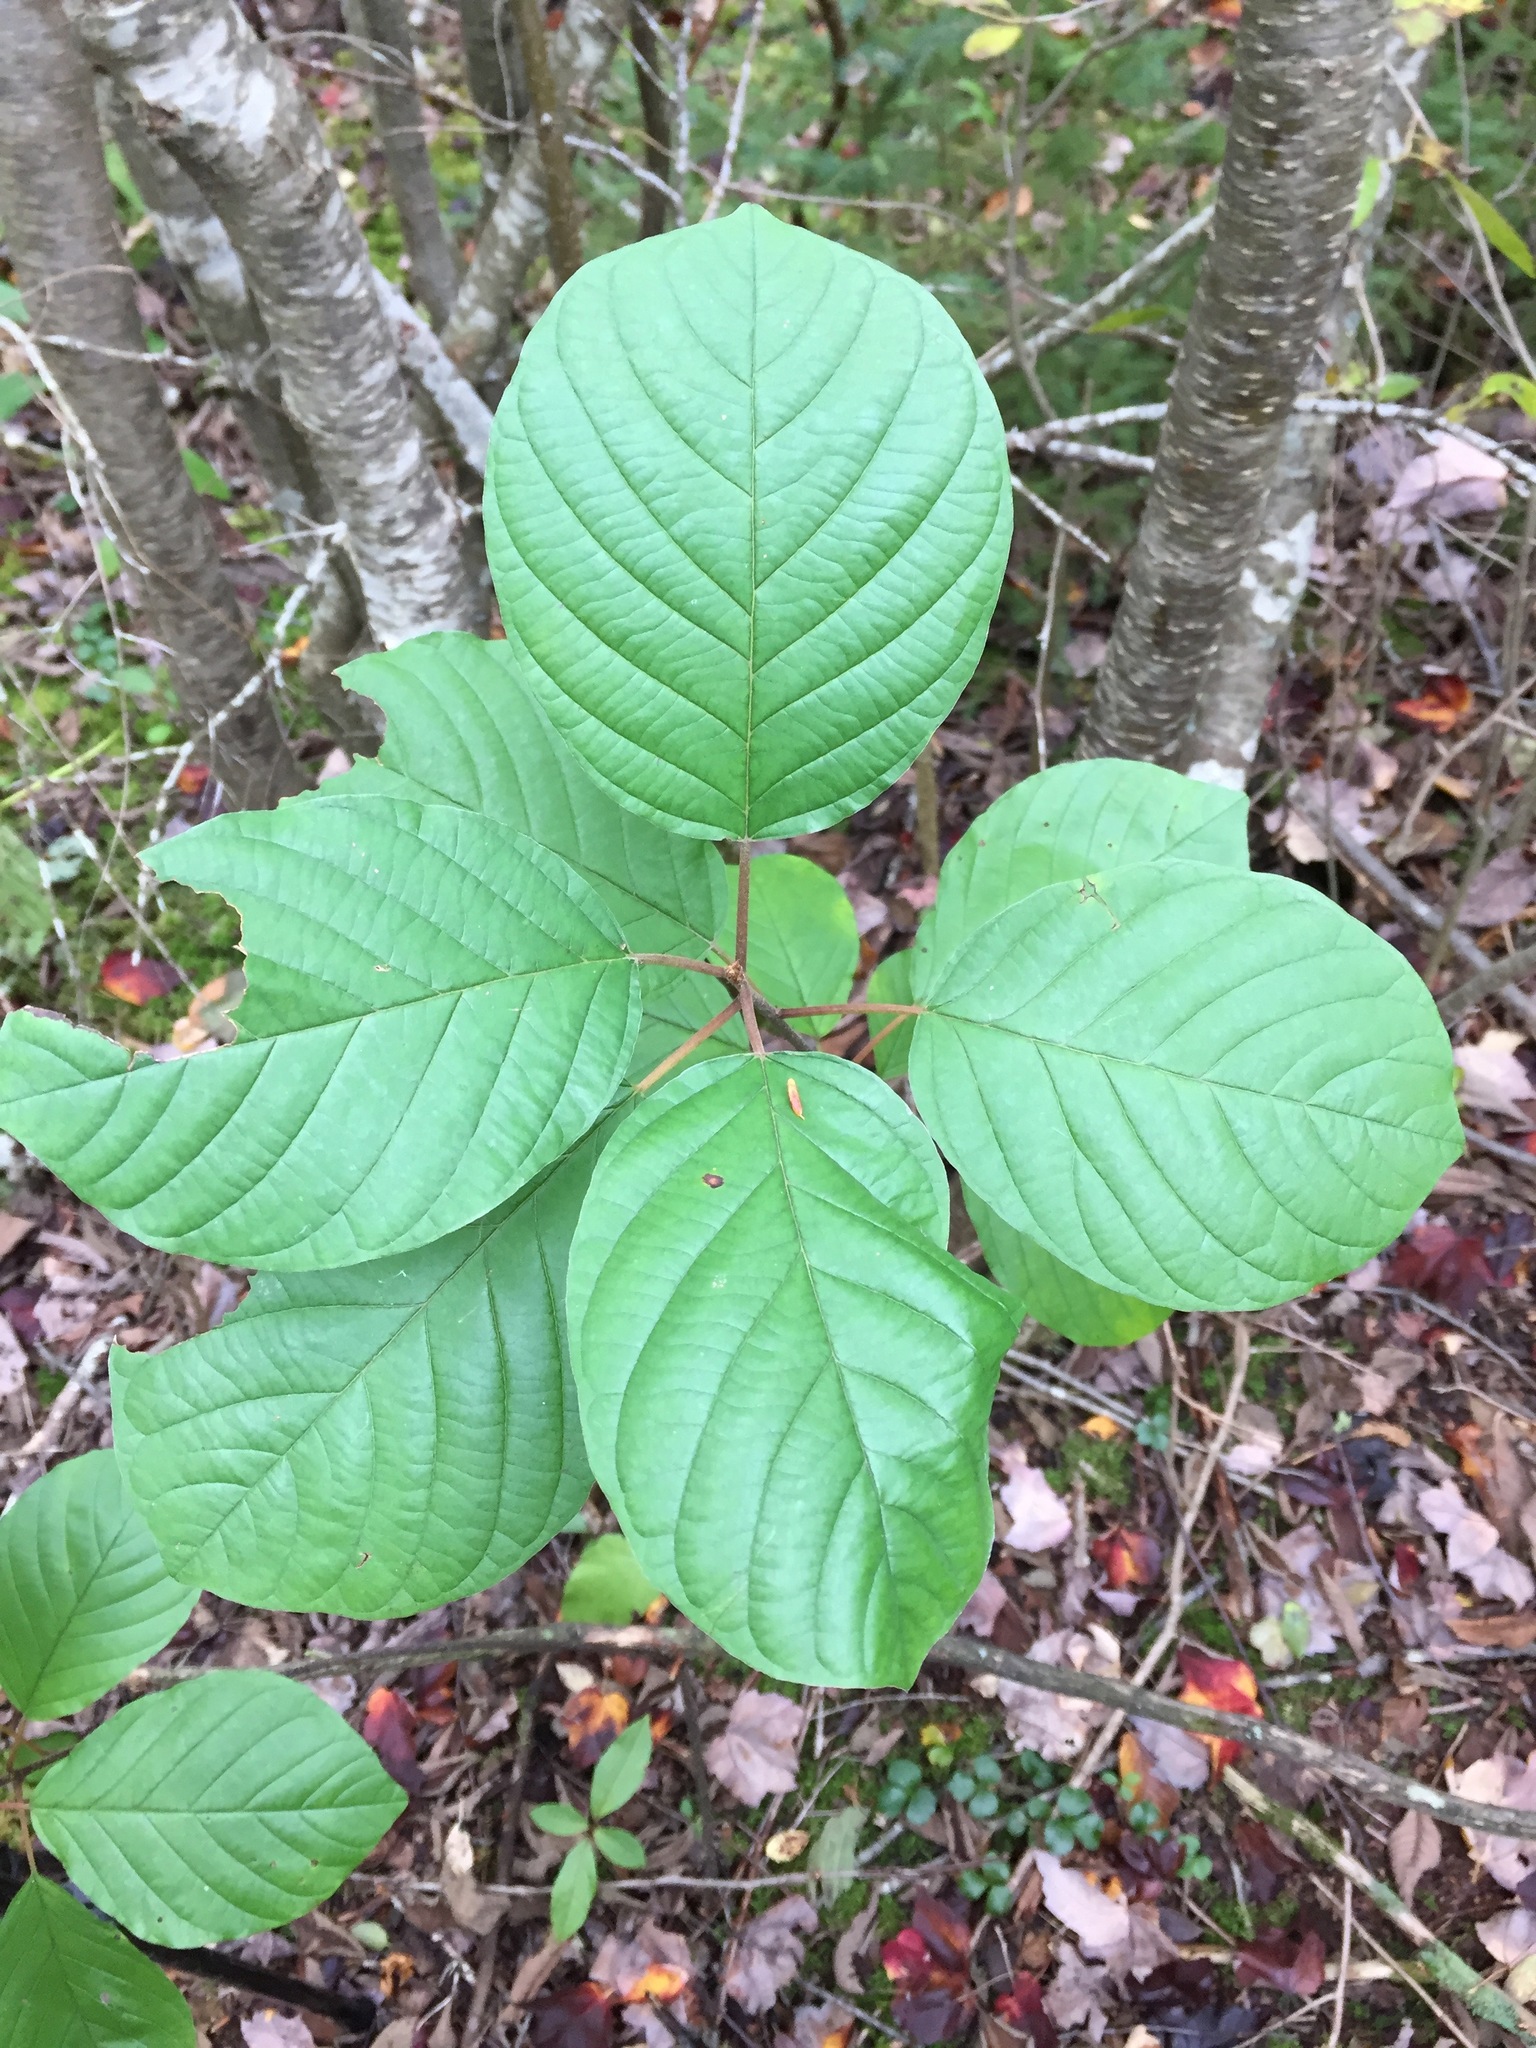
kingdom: Plantae
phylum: Tracheophyta
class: Magnoliopsida
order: Rosales
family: Rhamnaceae
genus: Frangula
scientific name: Frangula alnus
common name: Alder buckthorn
